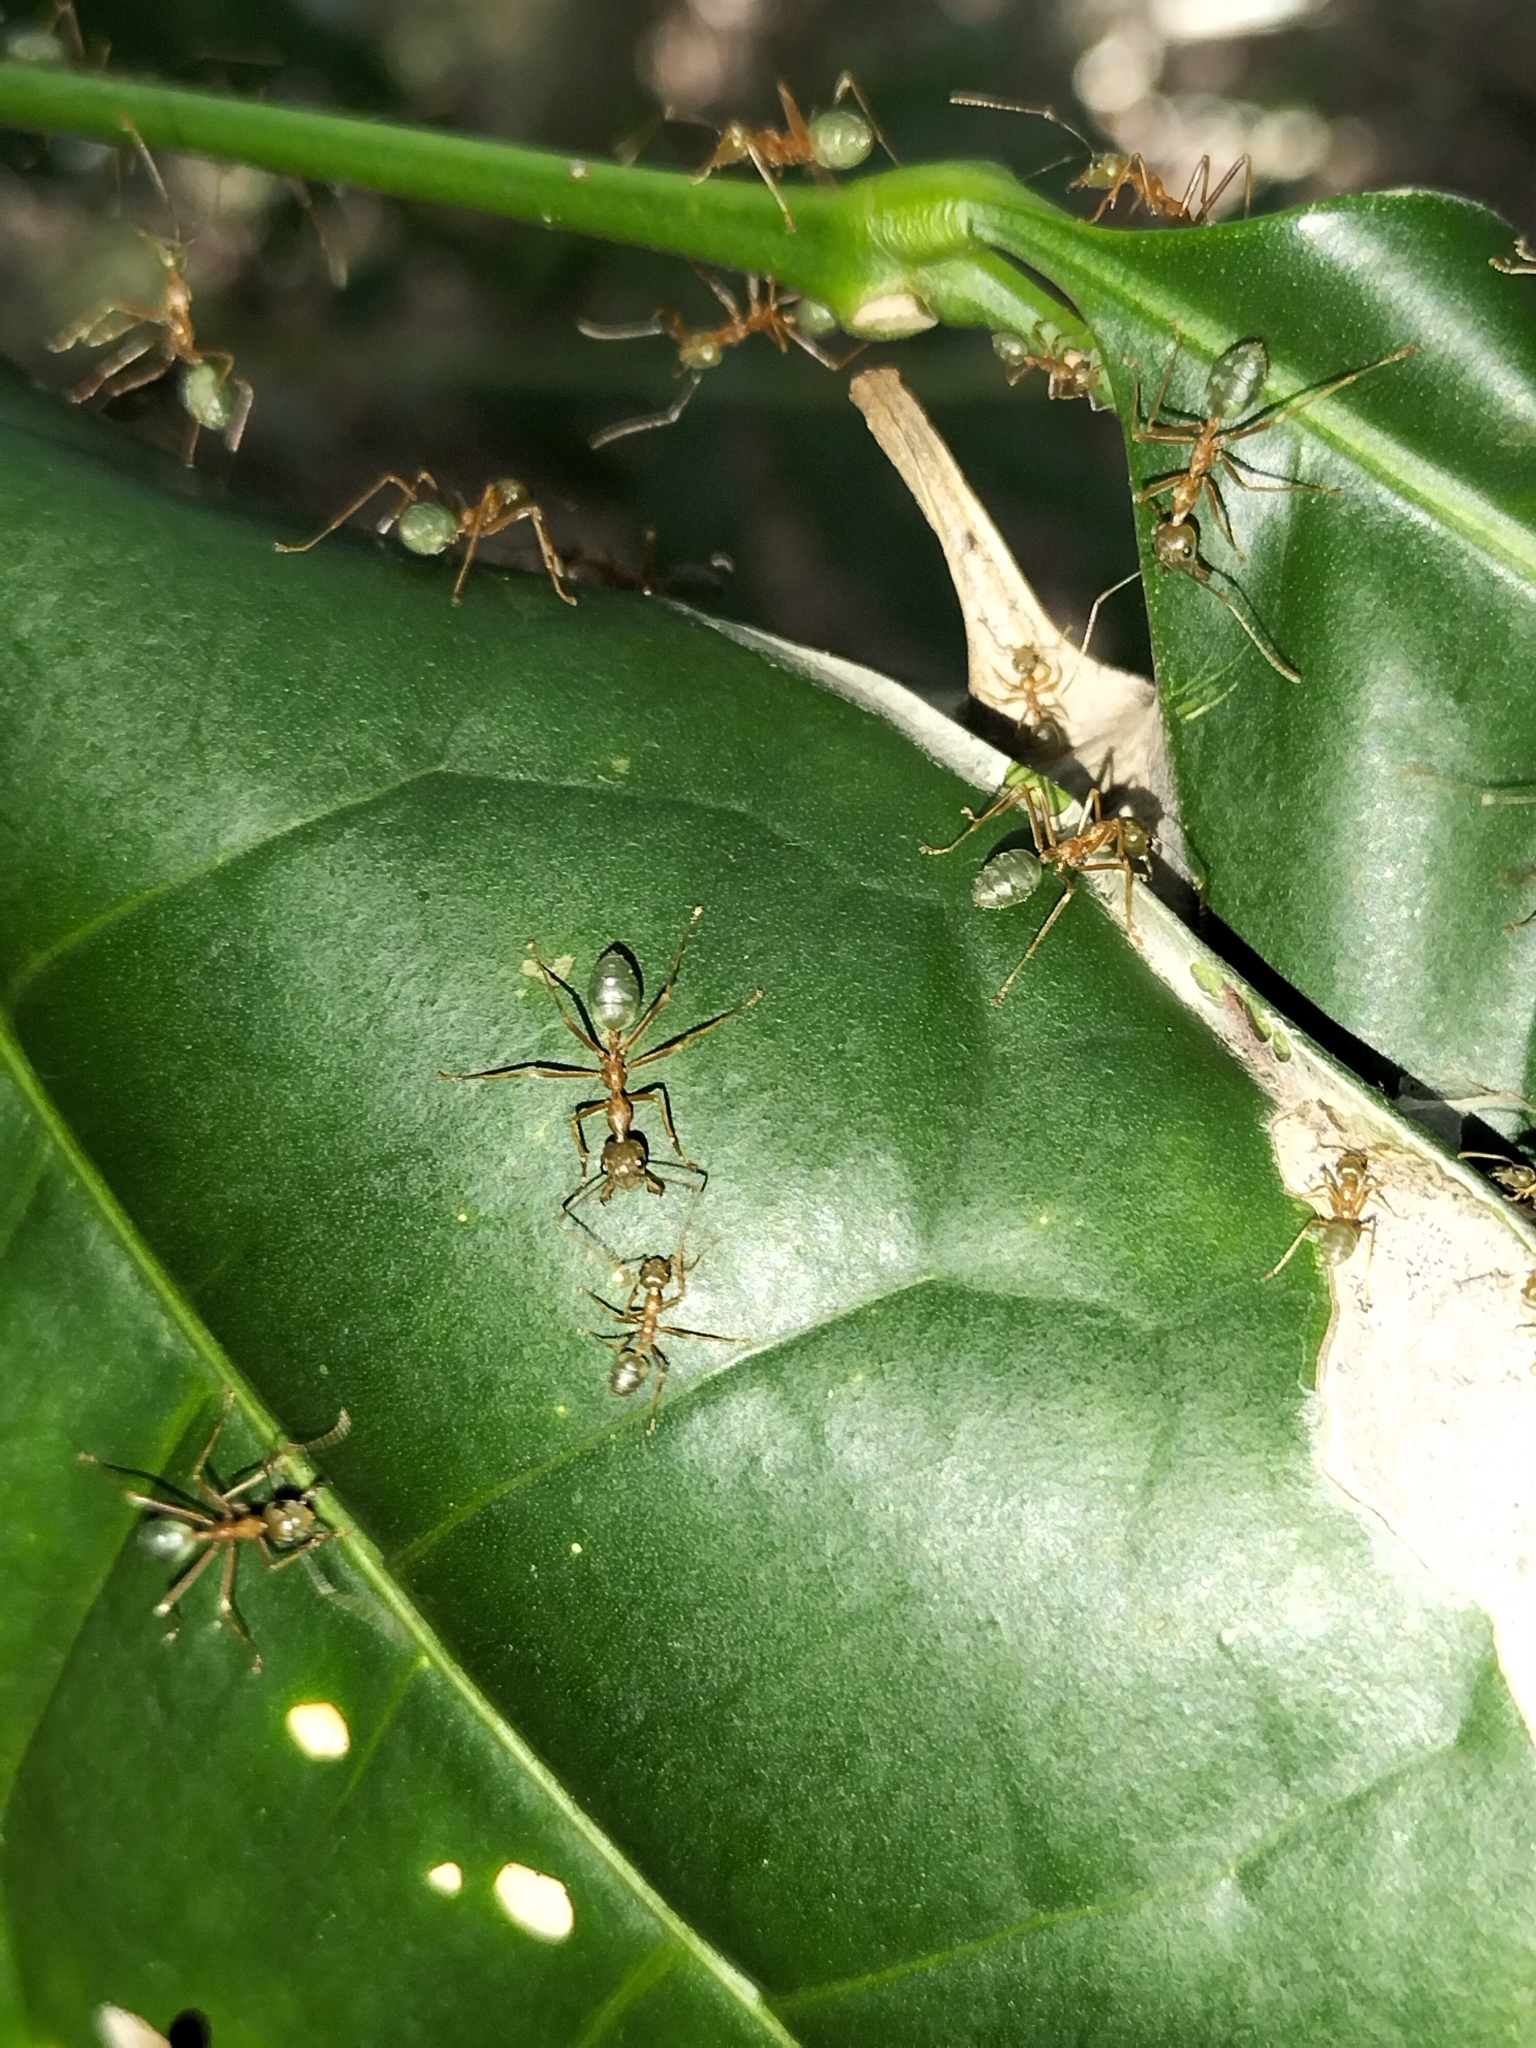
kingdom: Animalia
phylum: Arthropoda
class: Insecta
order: Hymenoptera
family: Formicidae
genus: Oecophylla
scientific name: Oecophylla smaragdina
